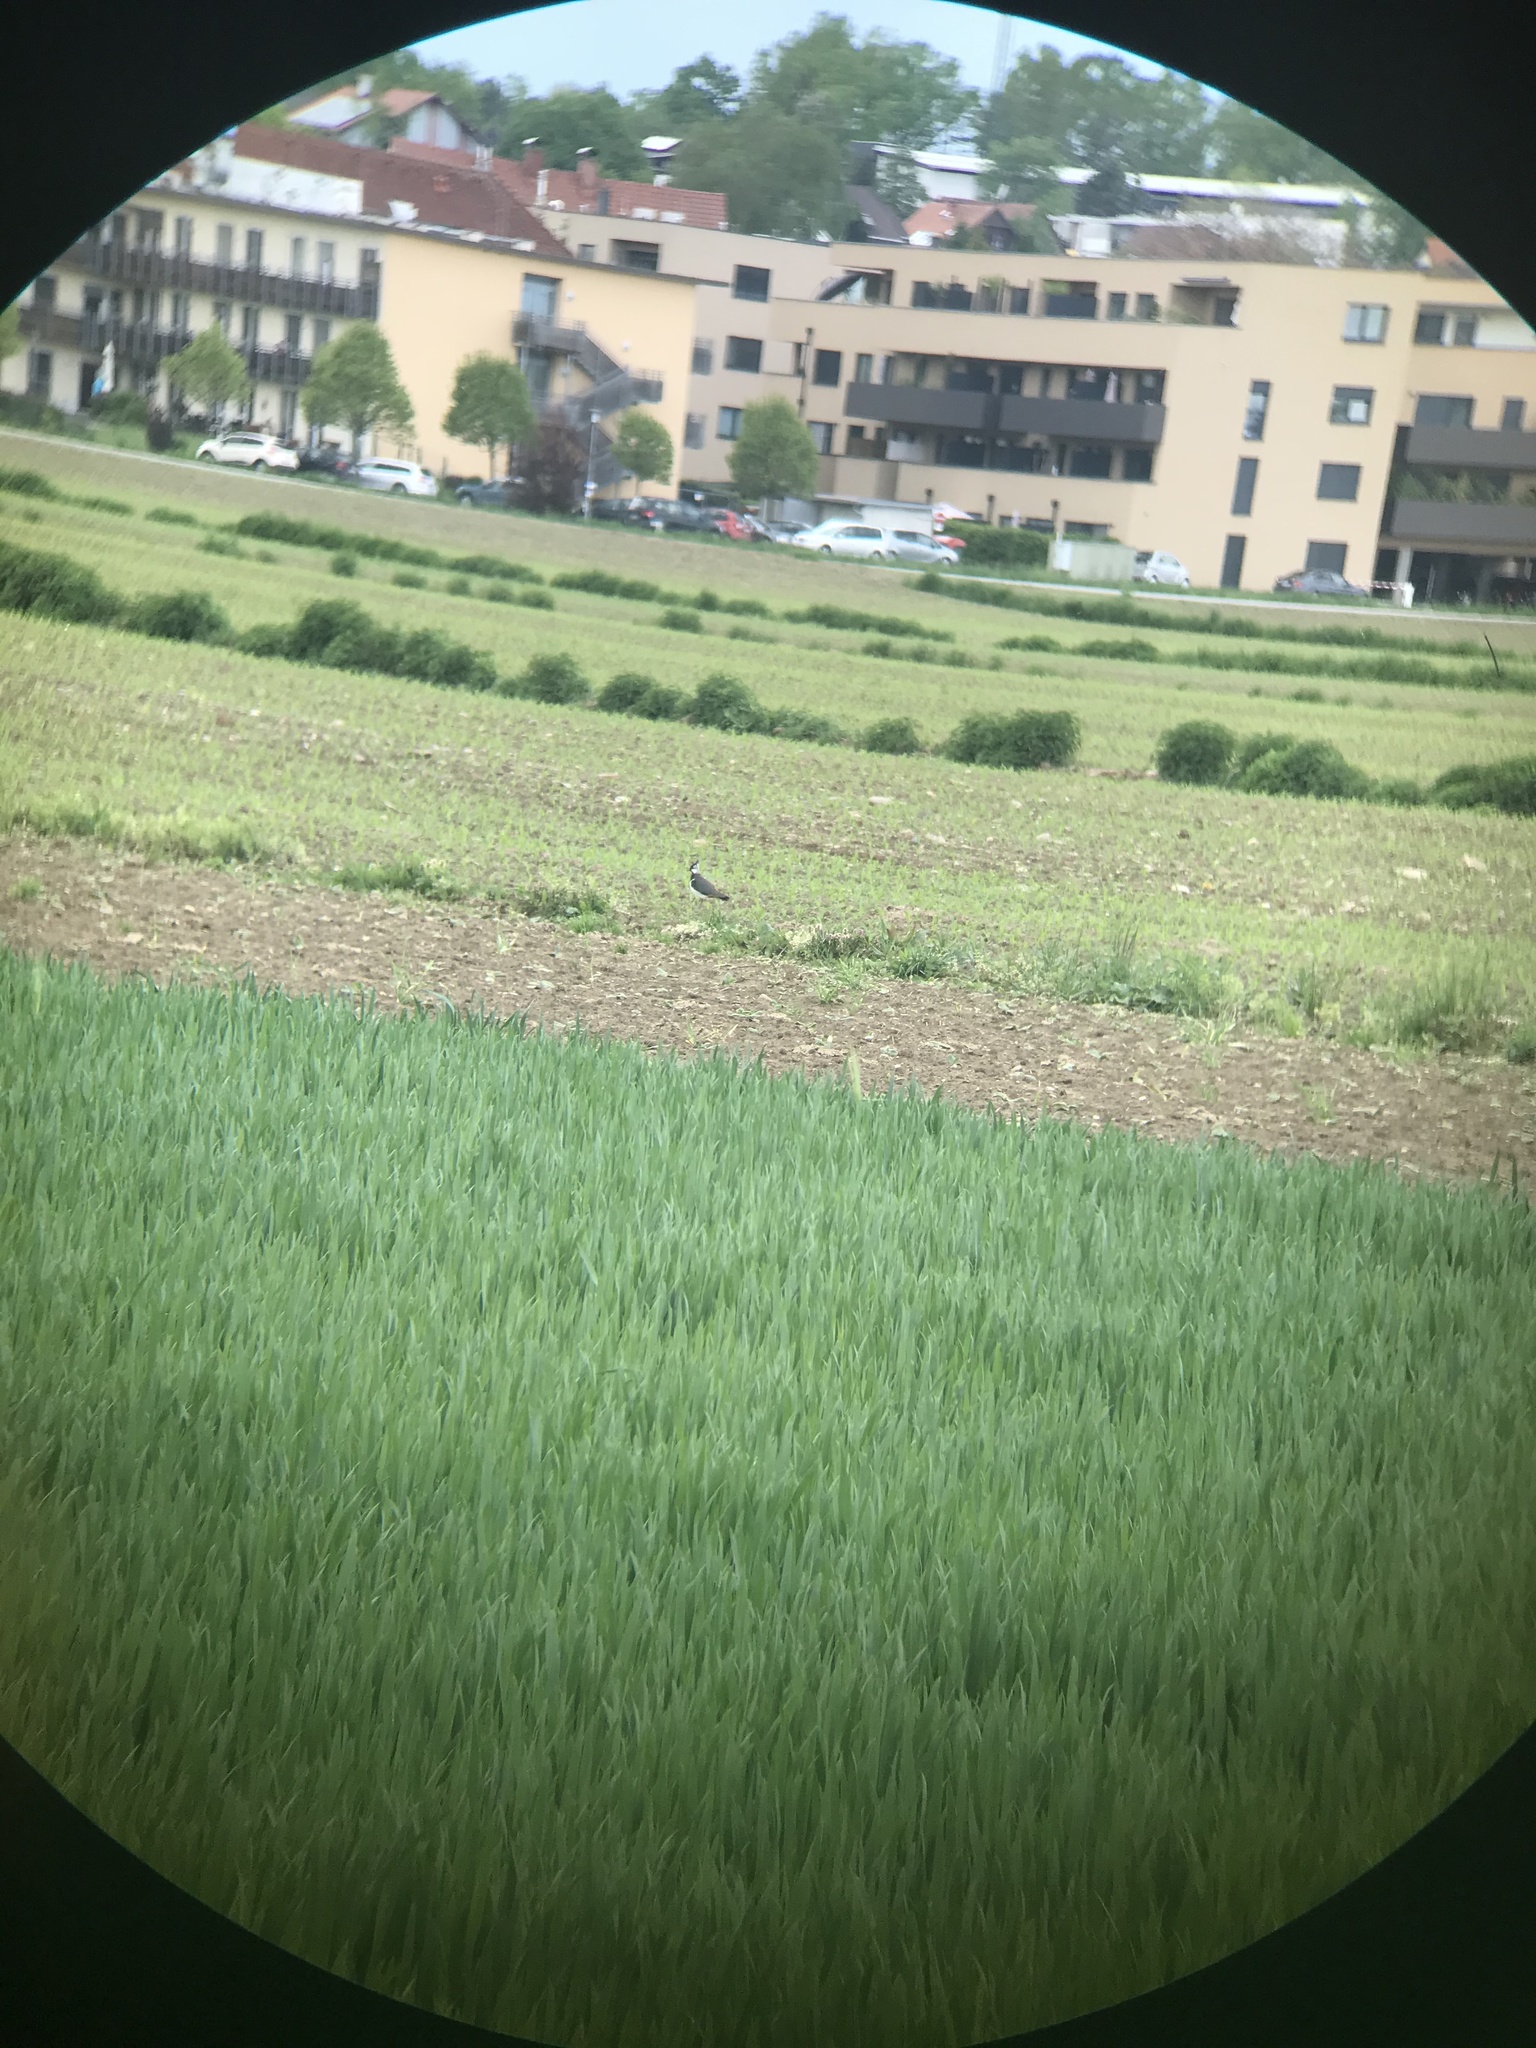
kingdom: Animalia
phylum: Chordata
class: Aves
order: Charadriiformes
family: Charadriidae
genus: Vanellus
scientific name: Vanellus vanellus
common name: Northern lapwing
